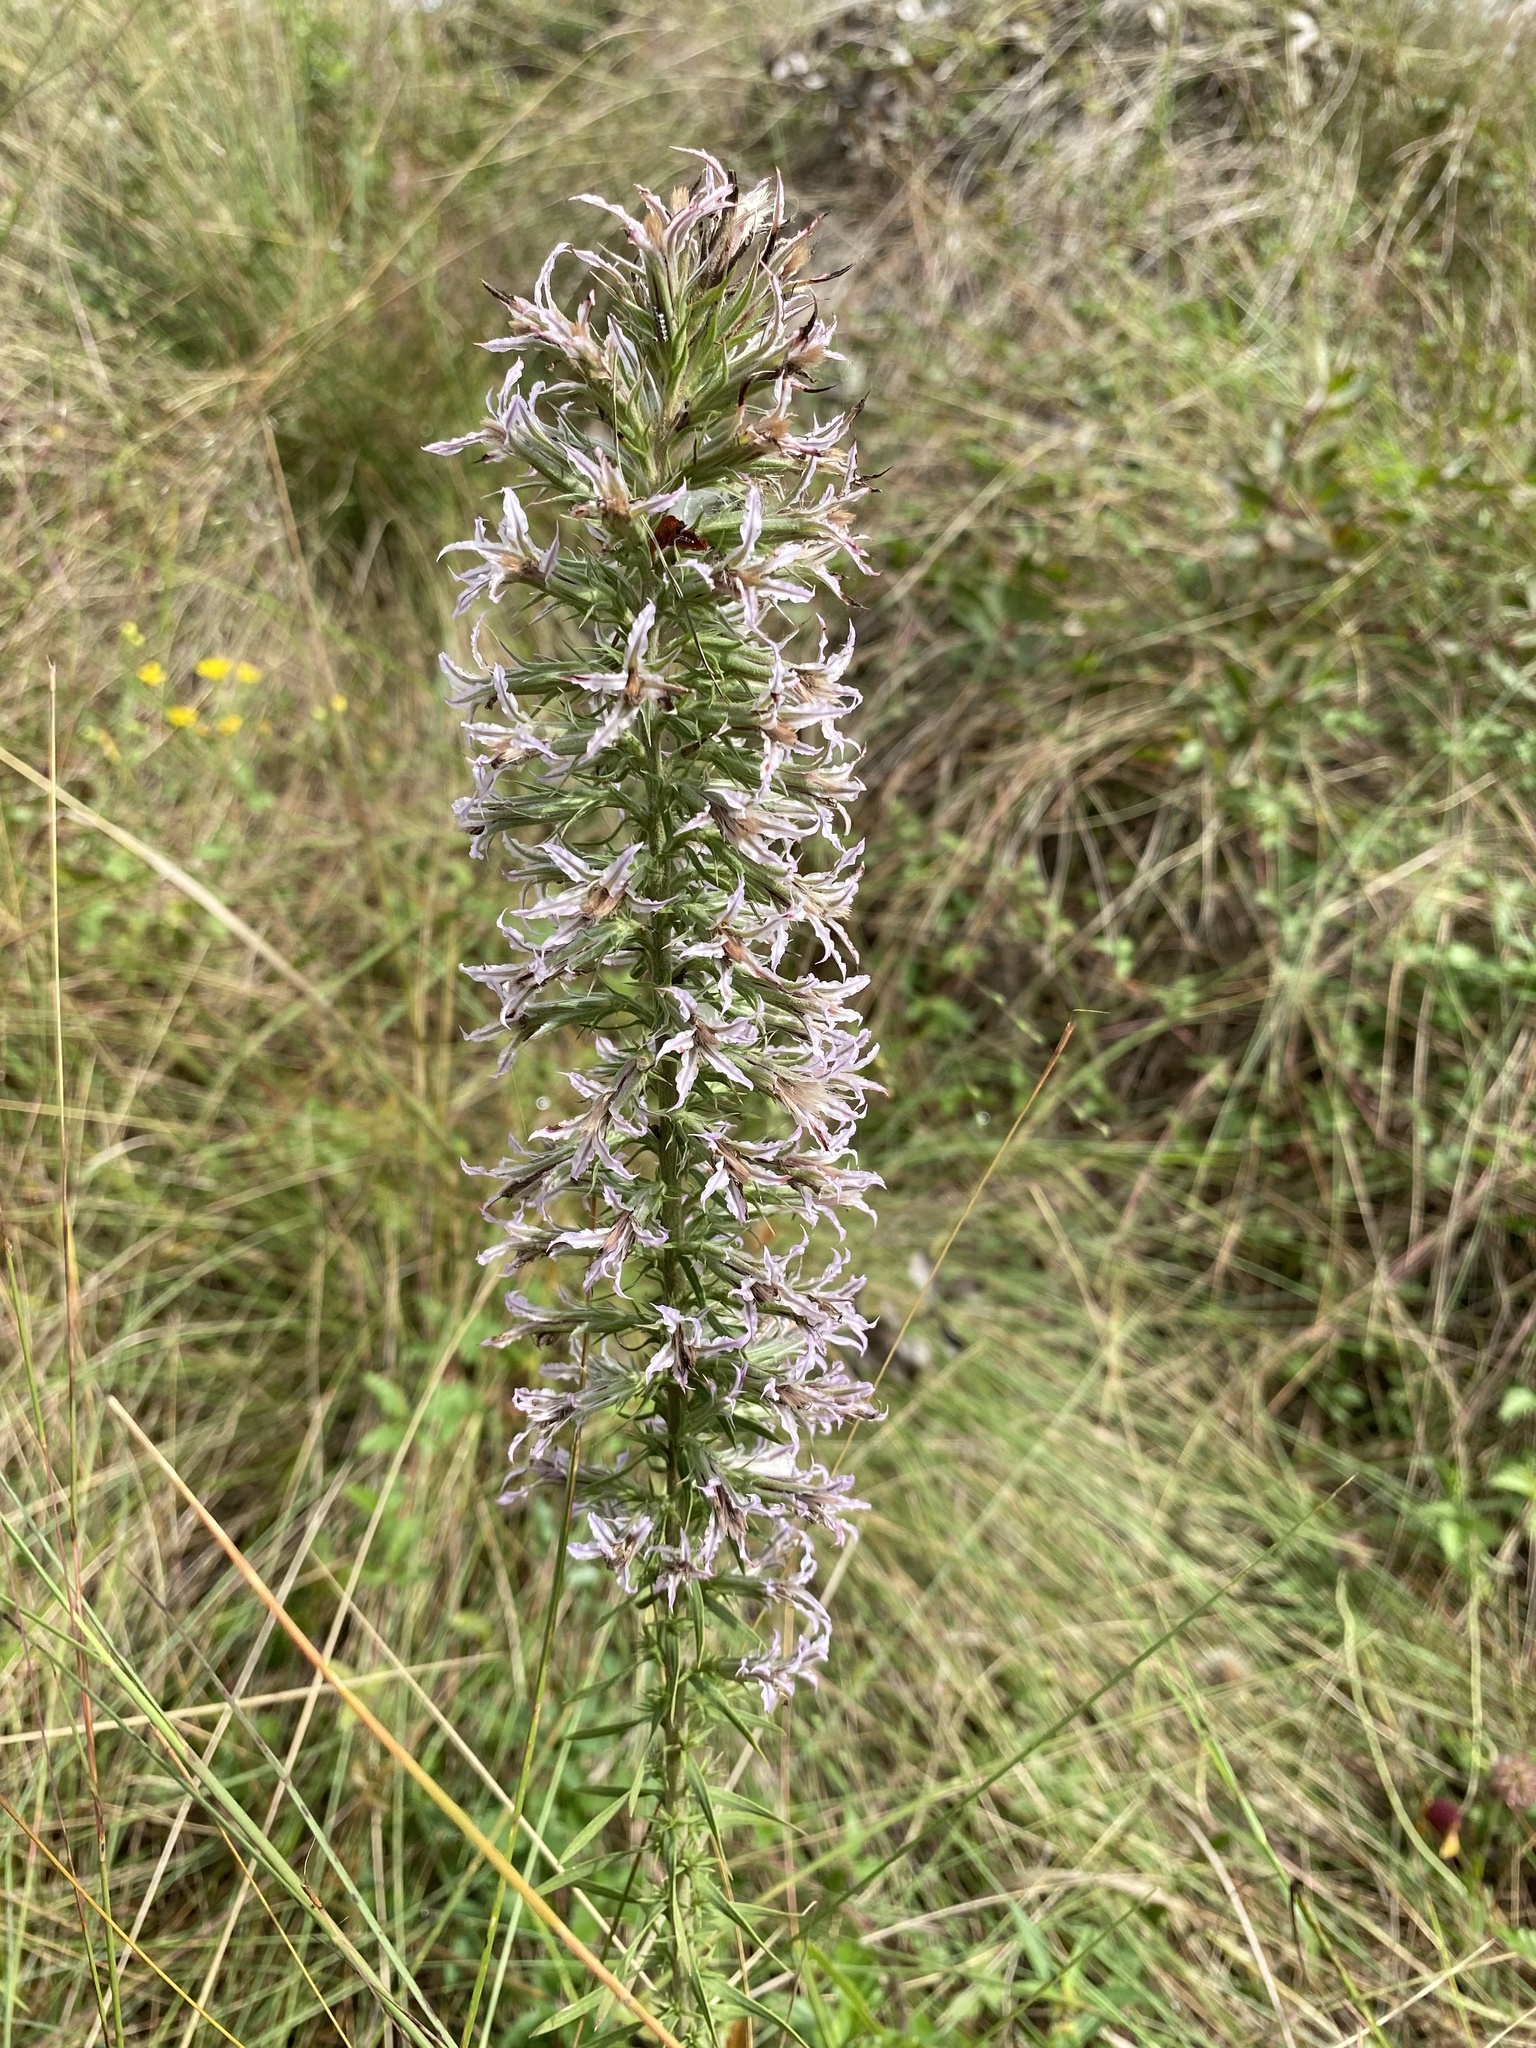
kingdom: Plantae
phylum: Tracheophyta
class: Magnoliopsida
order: Asterales
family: Asteraceae
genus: Liatris
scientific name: Liatris hesperelegans
